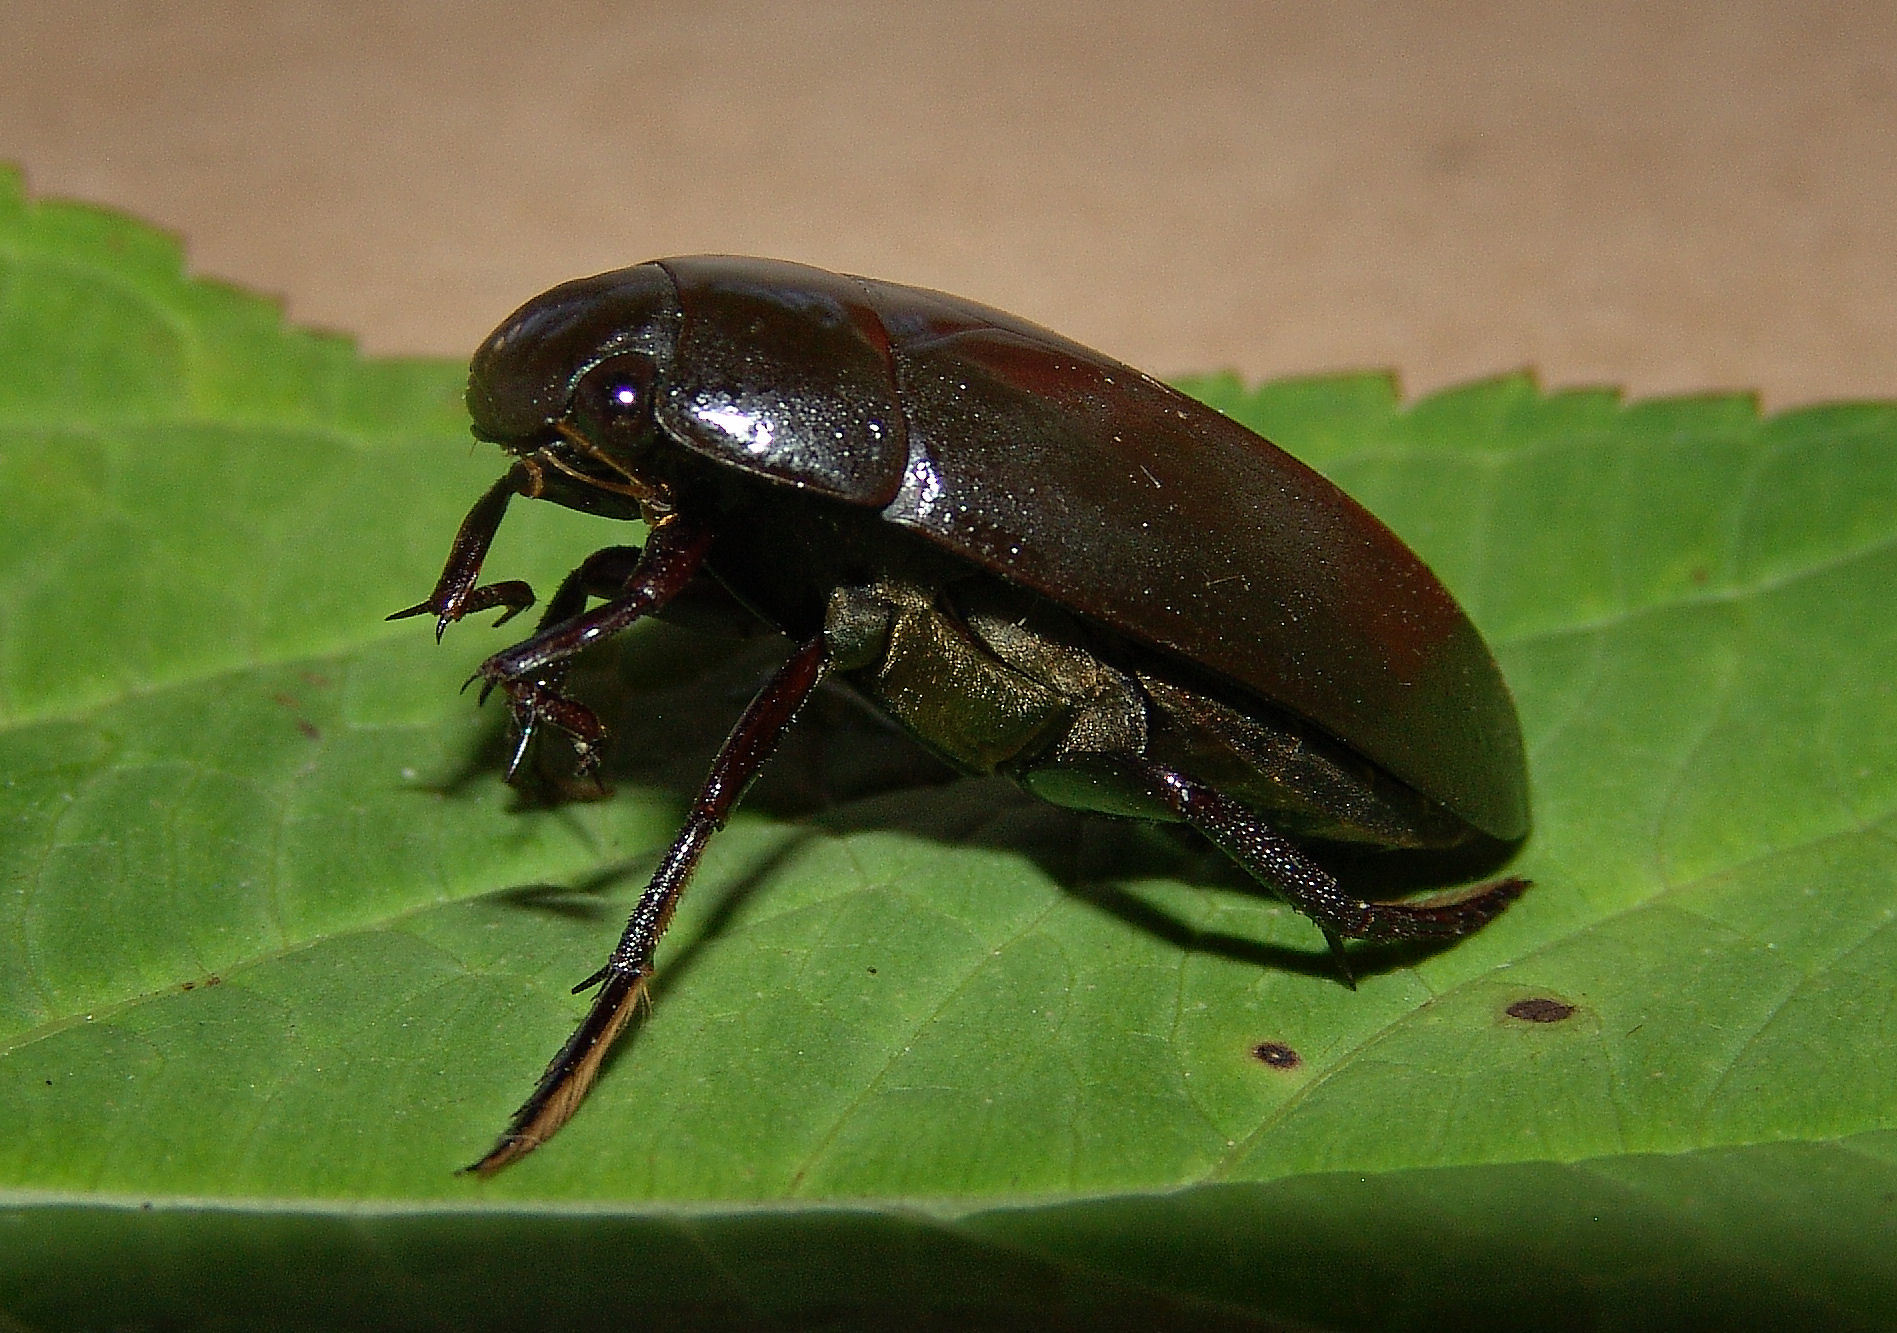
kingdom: Animalia
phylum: Arthropoda
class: Insecta
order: Coleoptera
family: Hydrophilidae
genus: Hydrophilus
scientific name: Hydrophilus triangularis
